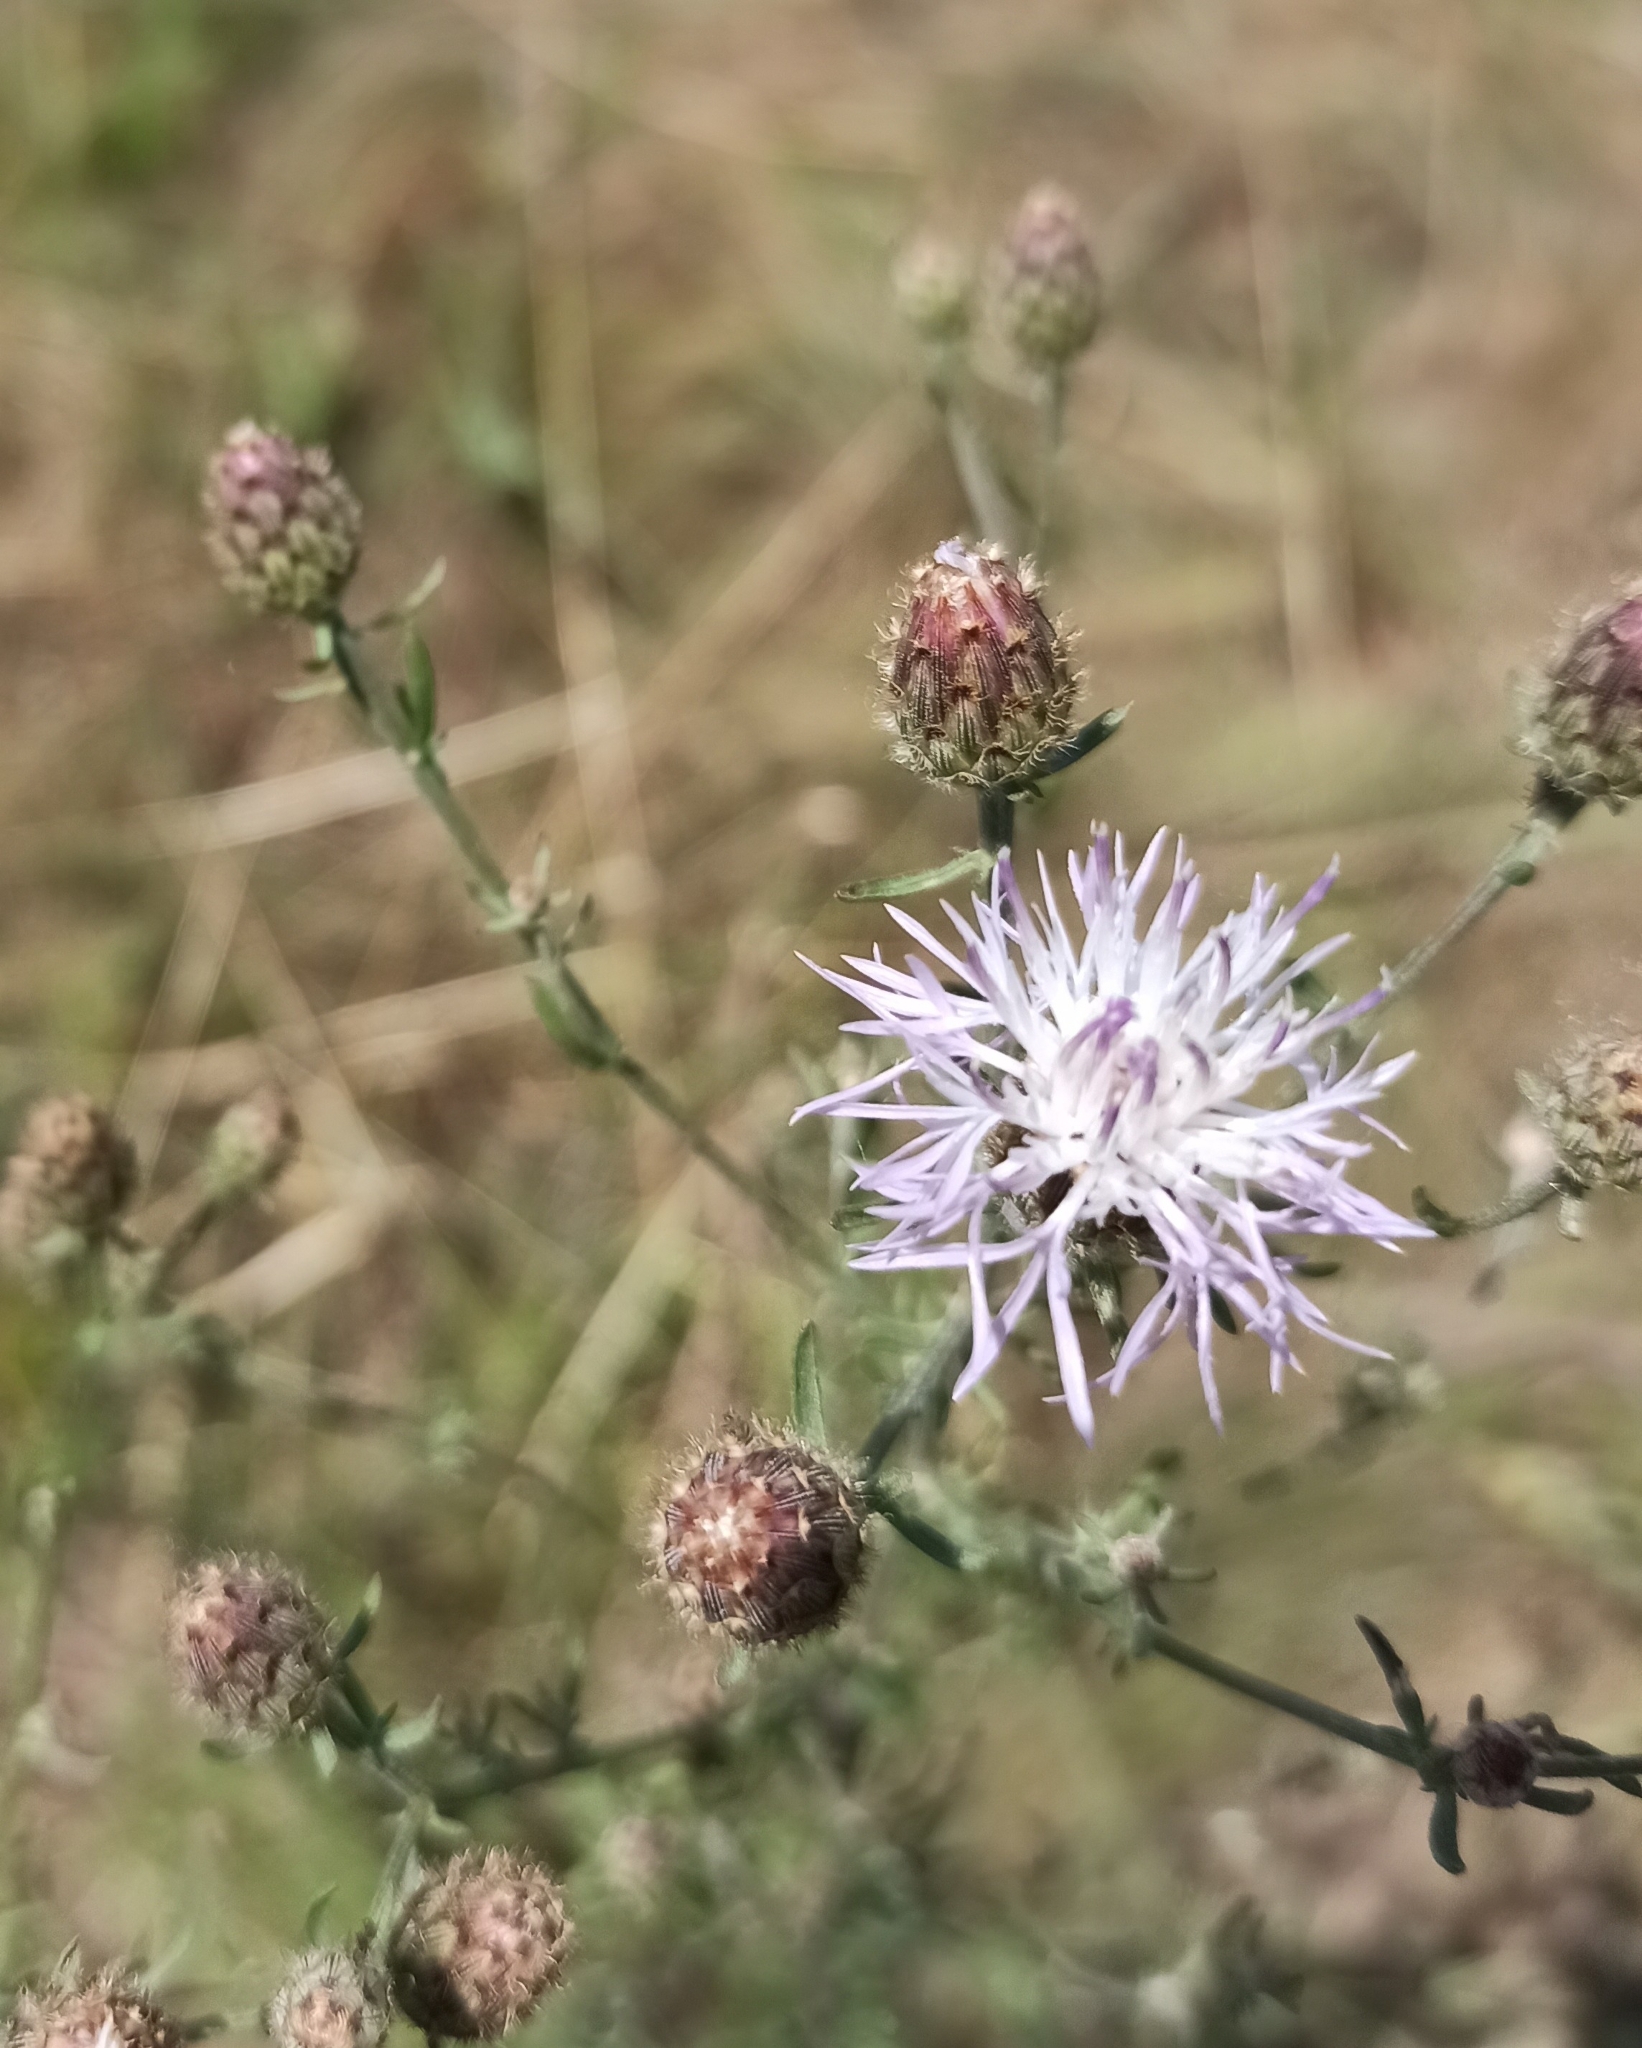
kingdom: Plantae
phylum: Tracheophyta
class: Magnoliopsida
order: Asterales
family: Asteraceae
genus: Centaurea
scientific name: Centaurea stoebe
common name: Spotted knapweed
